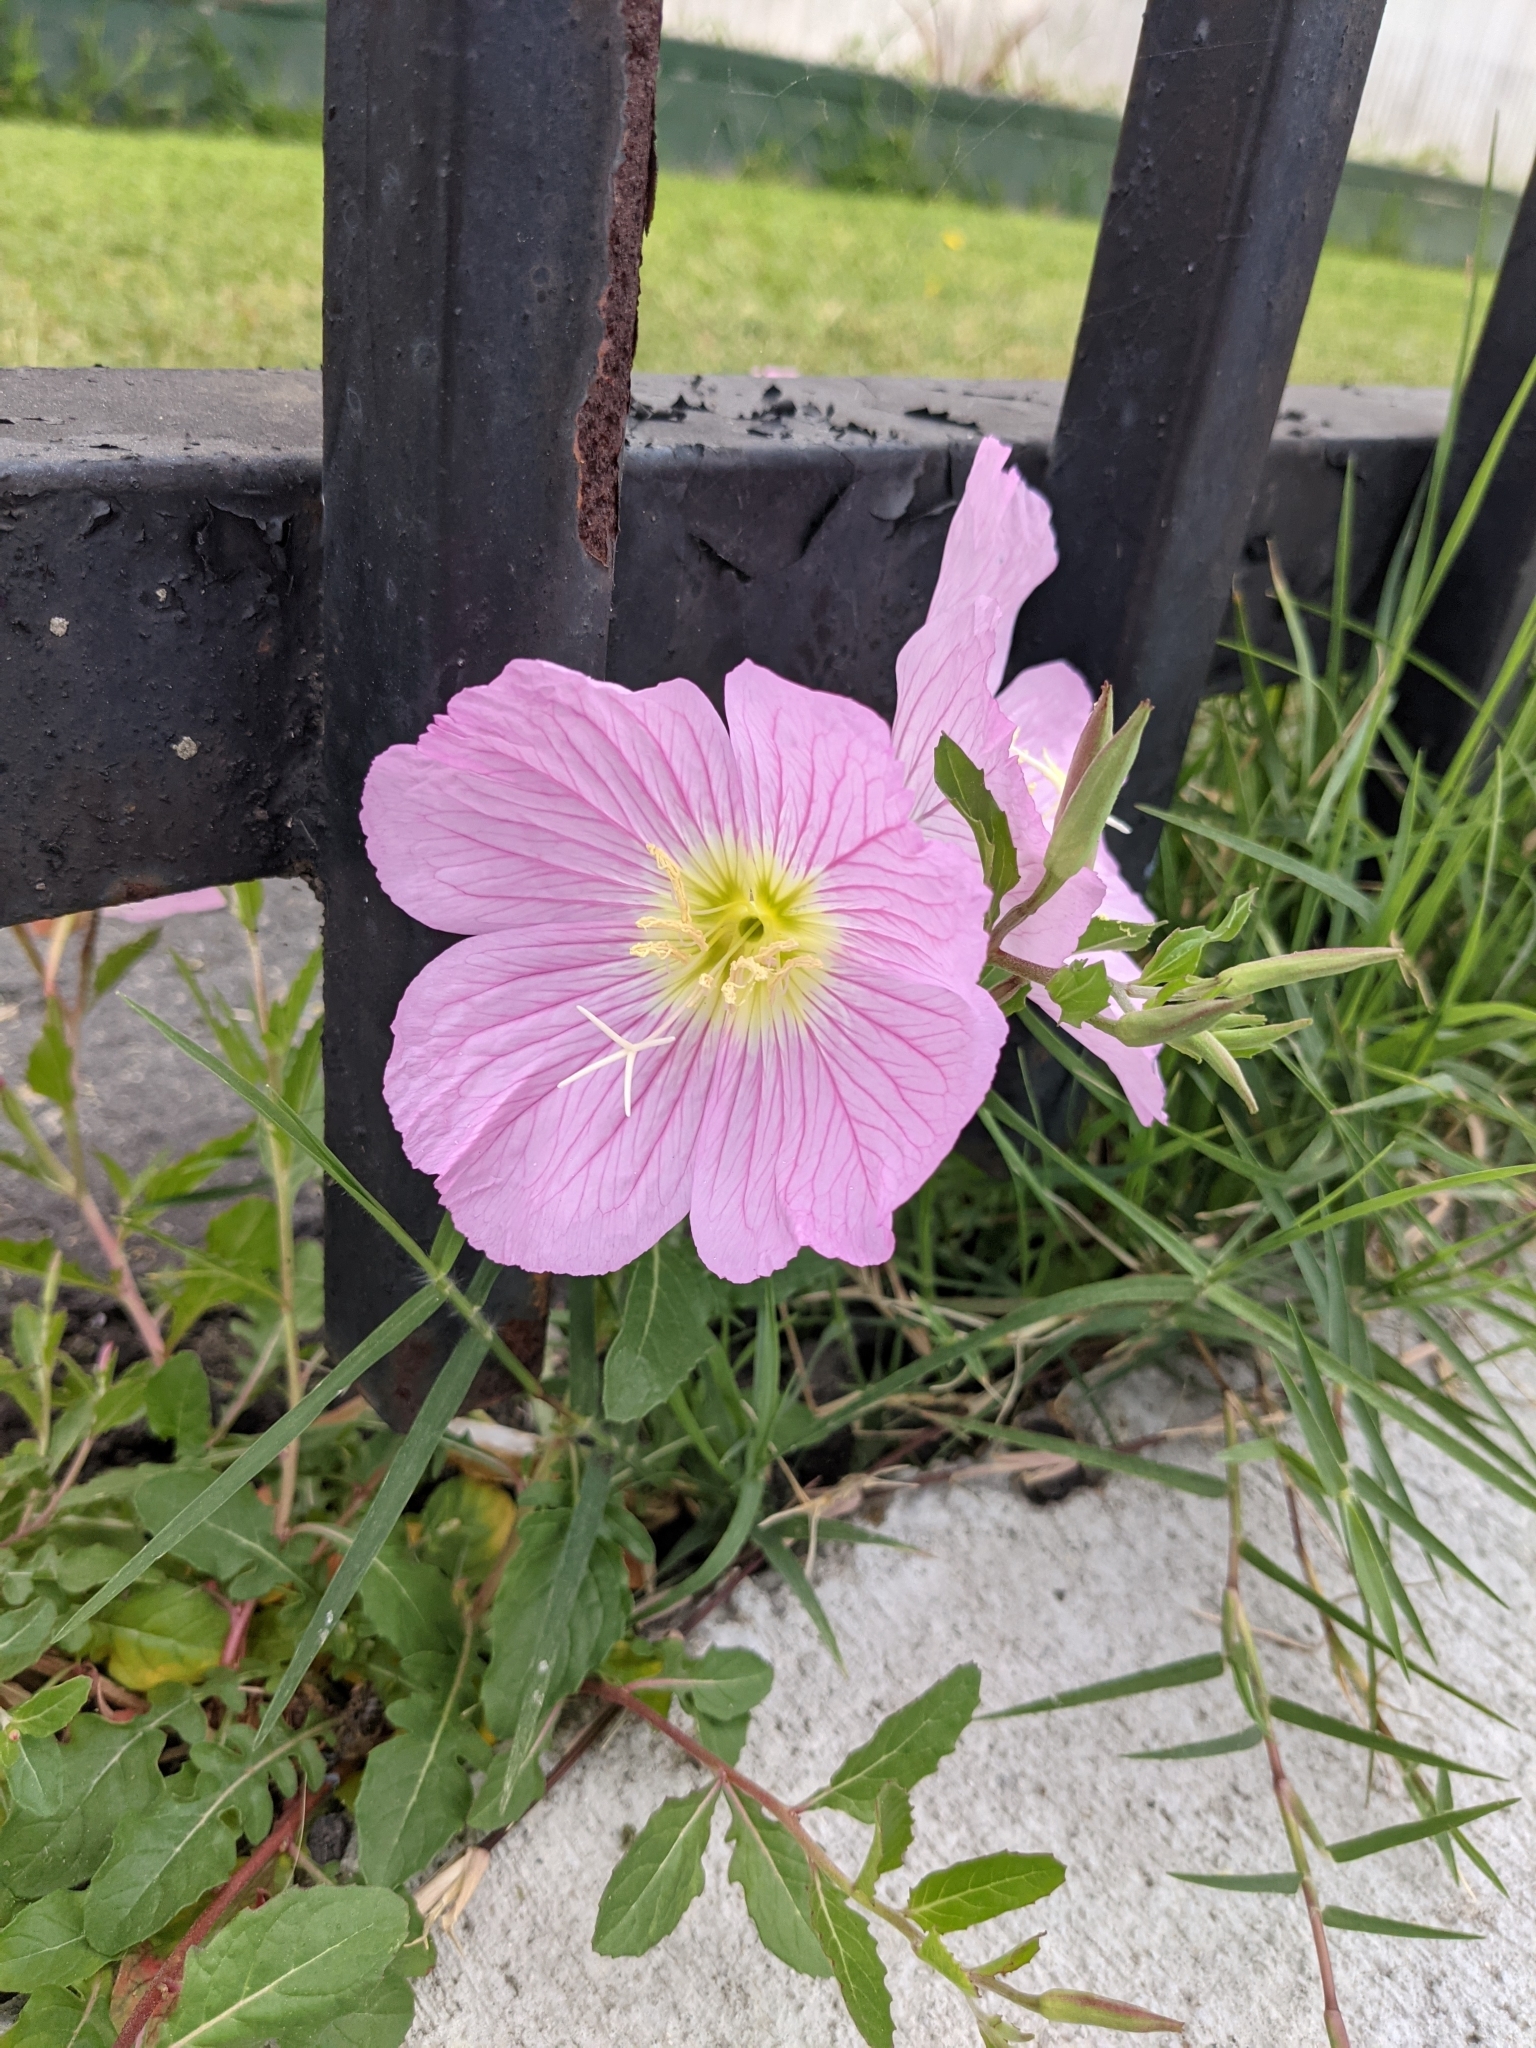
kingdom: Plantae
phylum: Tracheophyta
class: Magnoliopsida
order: Myrtales
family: Onagraceae
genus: Oenothera
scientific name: Oenothera speciosa
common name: White evening-primrose
